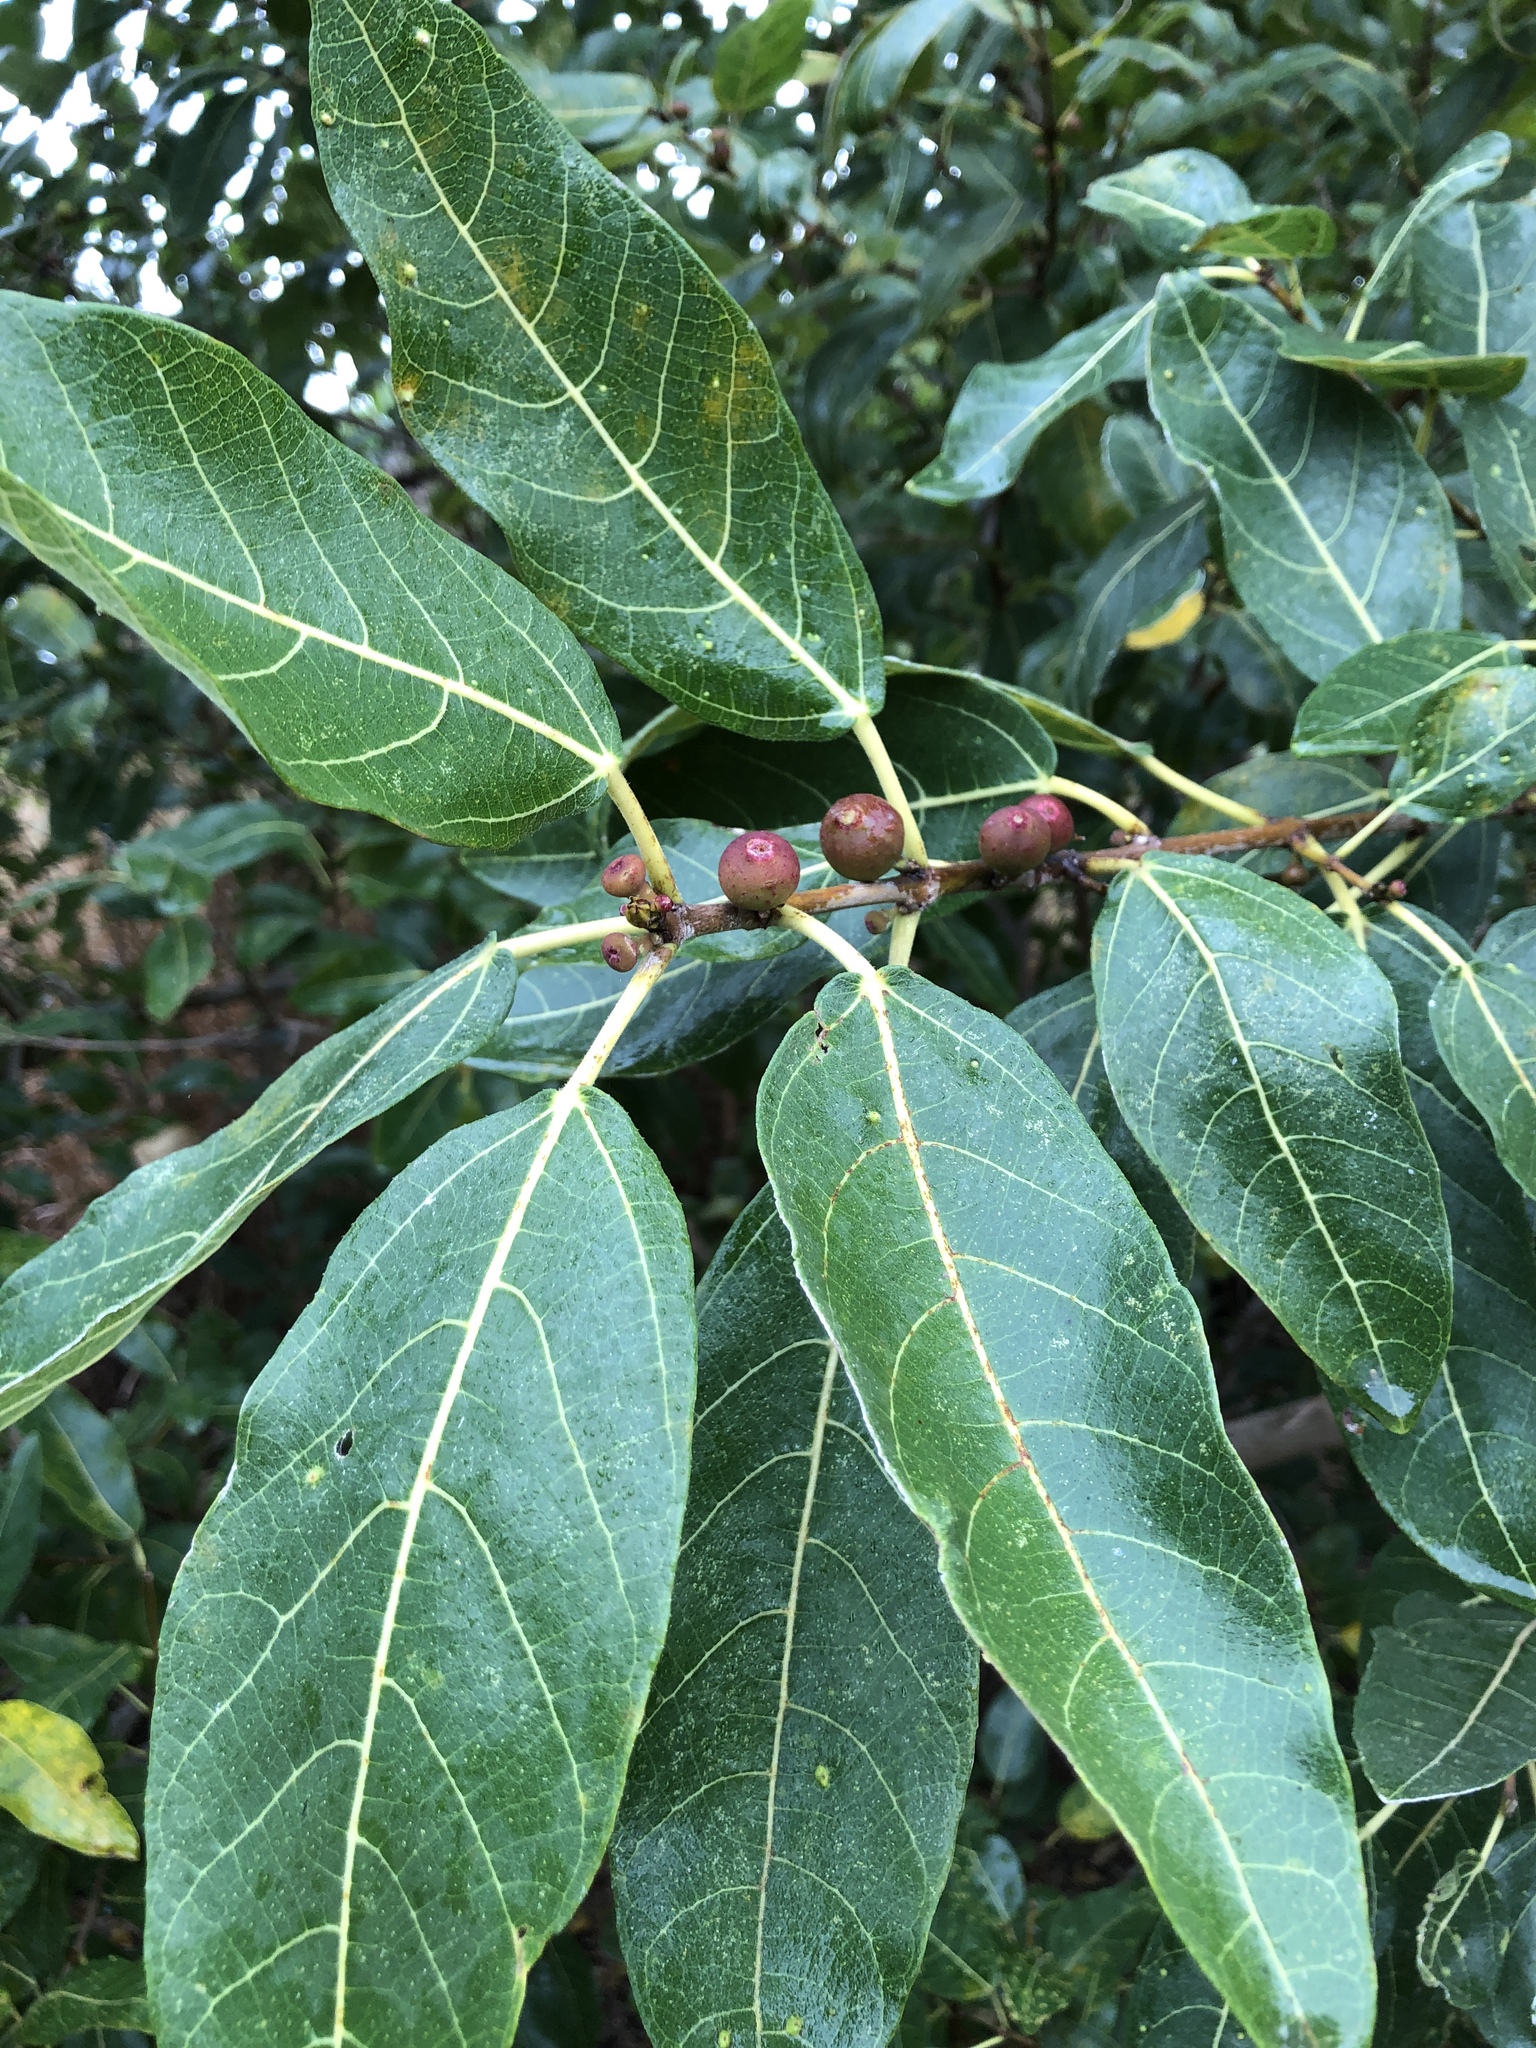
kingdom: Plantae
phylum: Tracheophyta
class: Magnoliopsida
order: Rosales
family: Moraceae
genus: Ficus
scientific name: Ficus opposita
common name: Figwood
